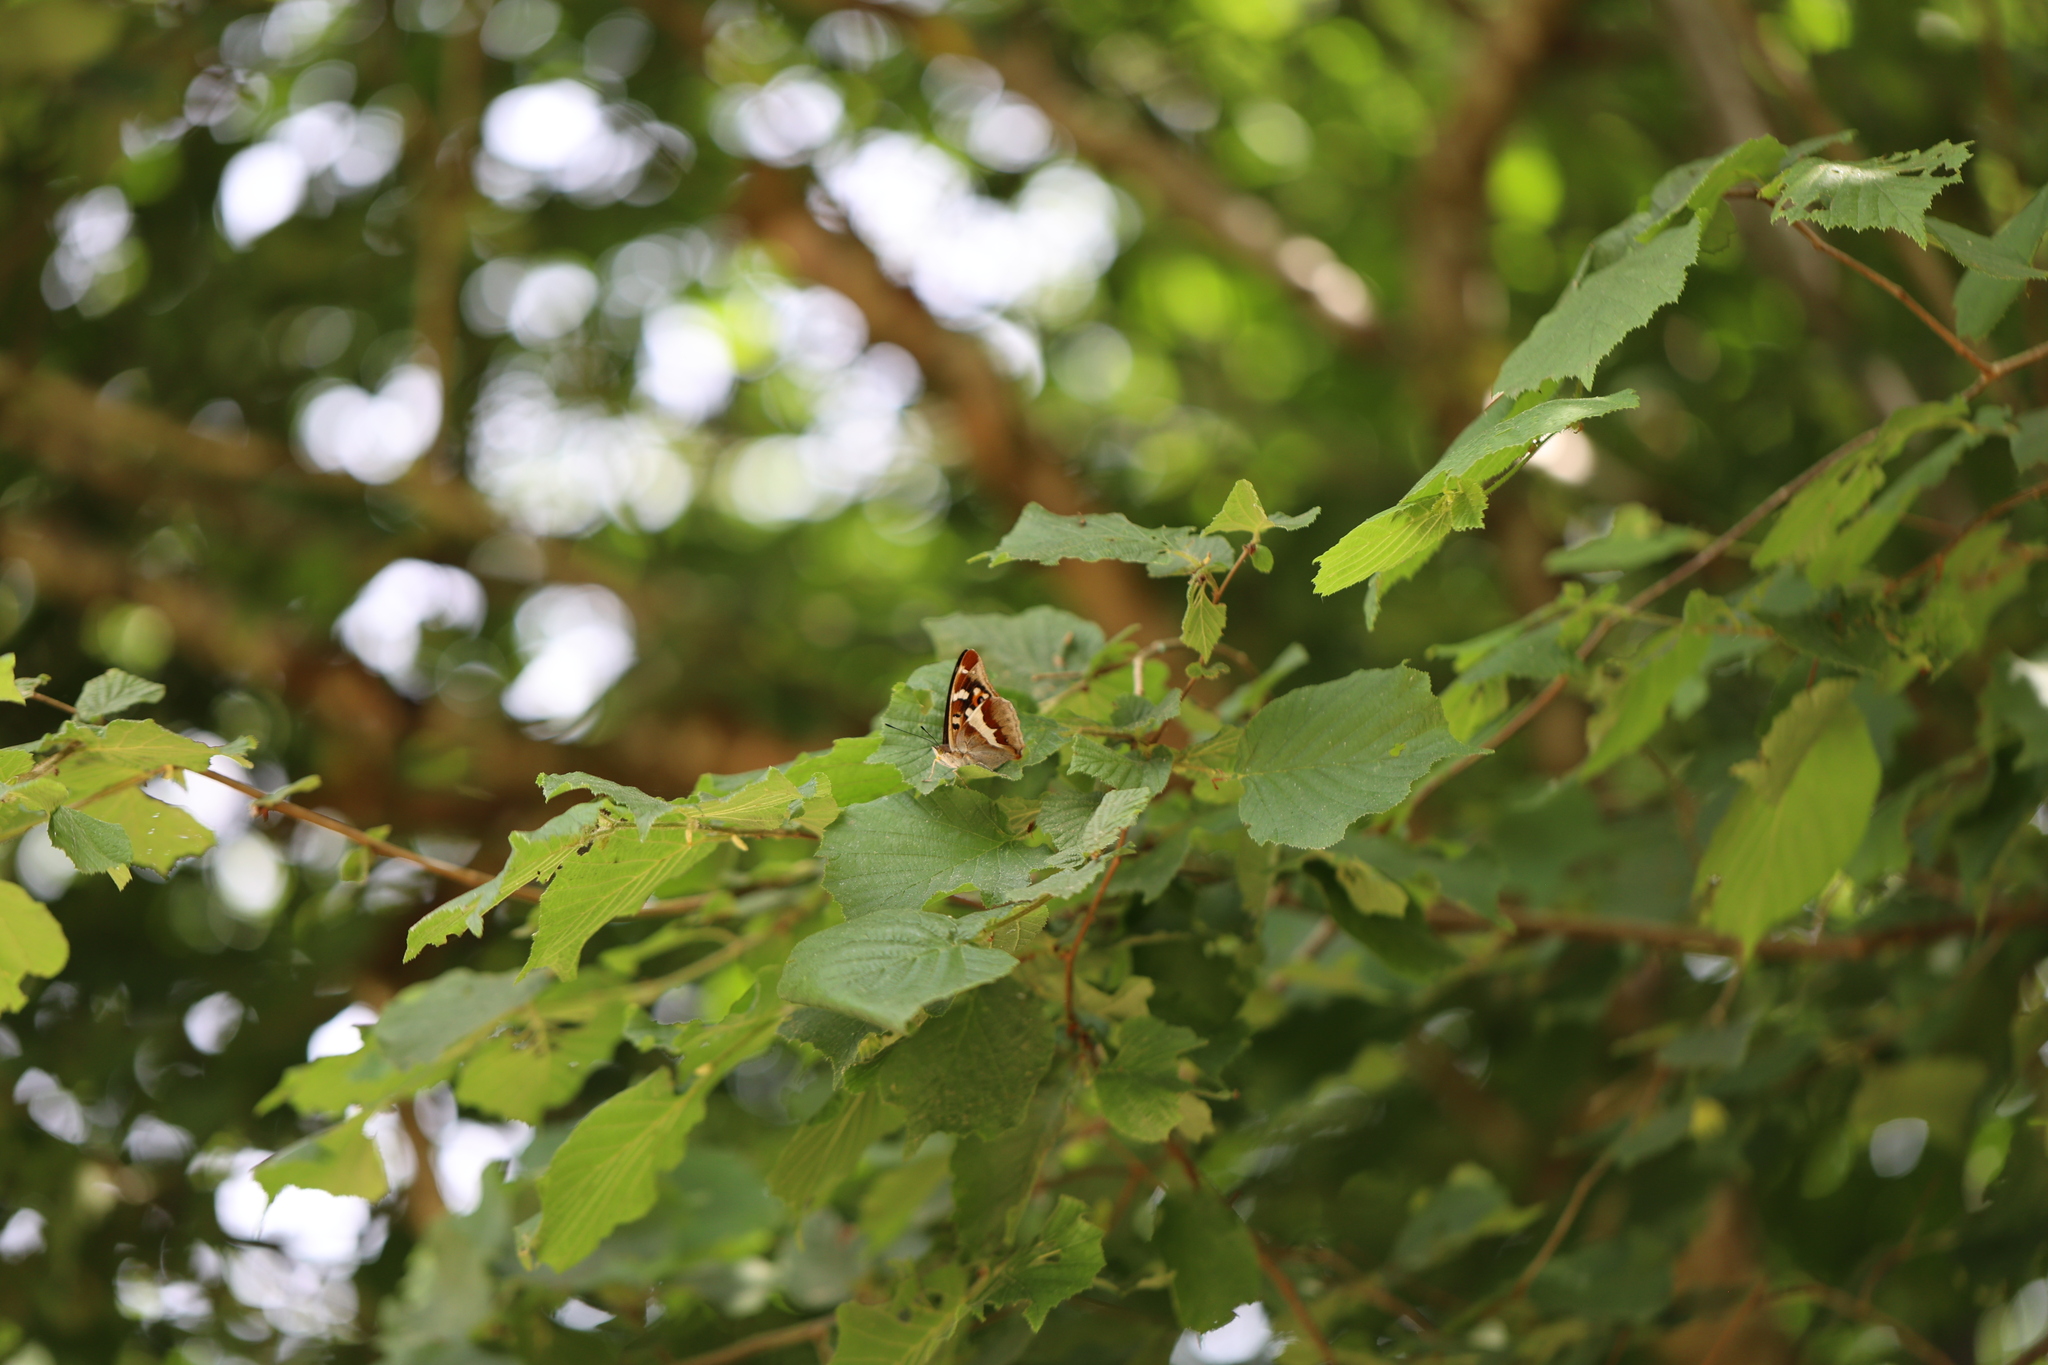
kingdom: Animalia
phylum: Arthropoda
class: Insecta
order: Lepidoptera
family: Nymphalidae
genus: Apatura
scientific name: Apatura iris
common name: Purple emperor
